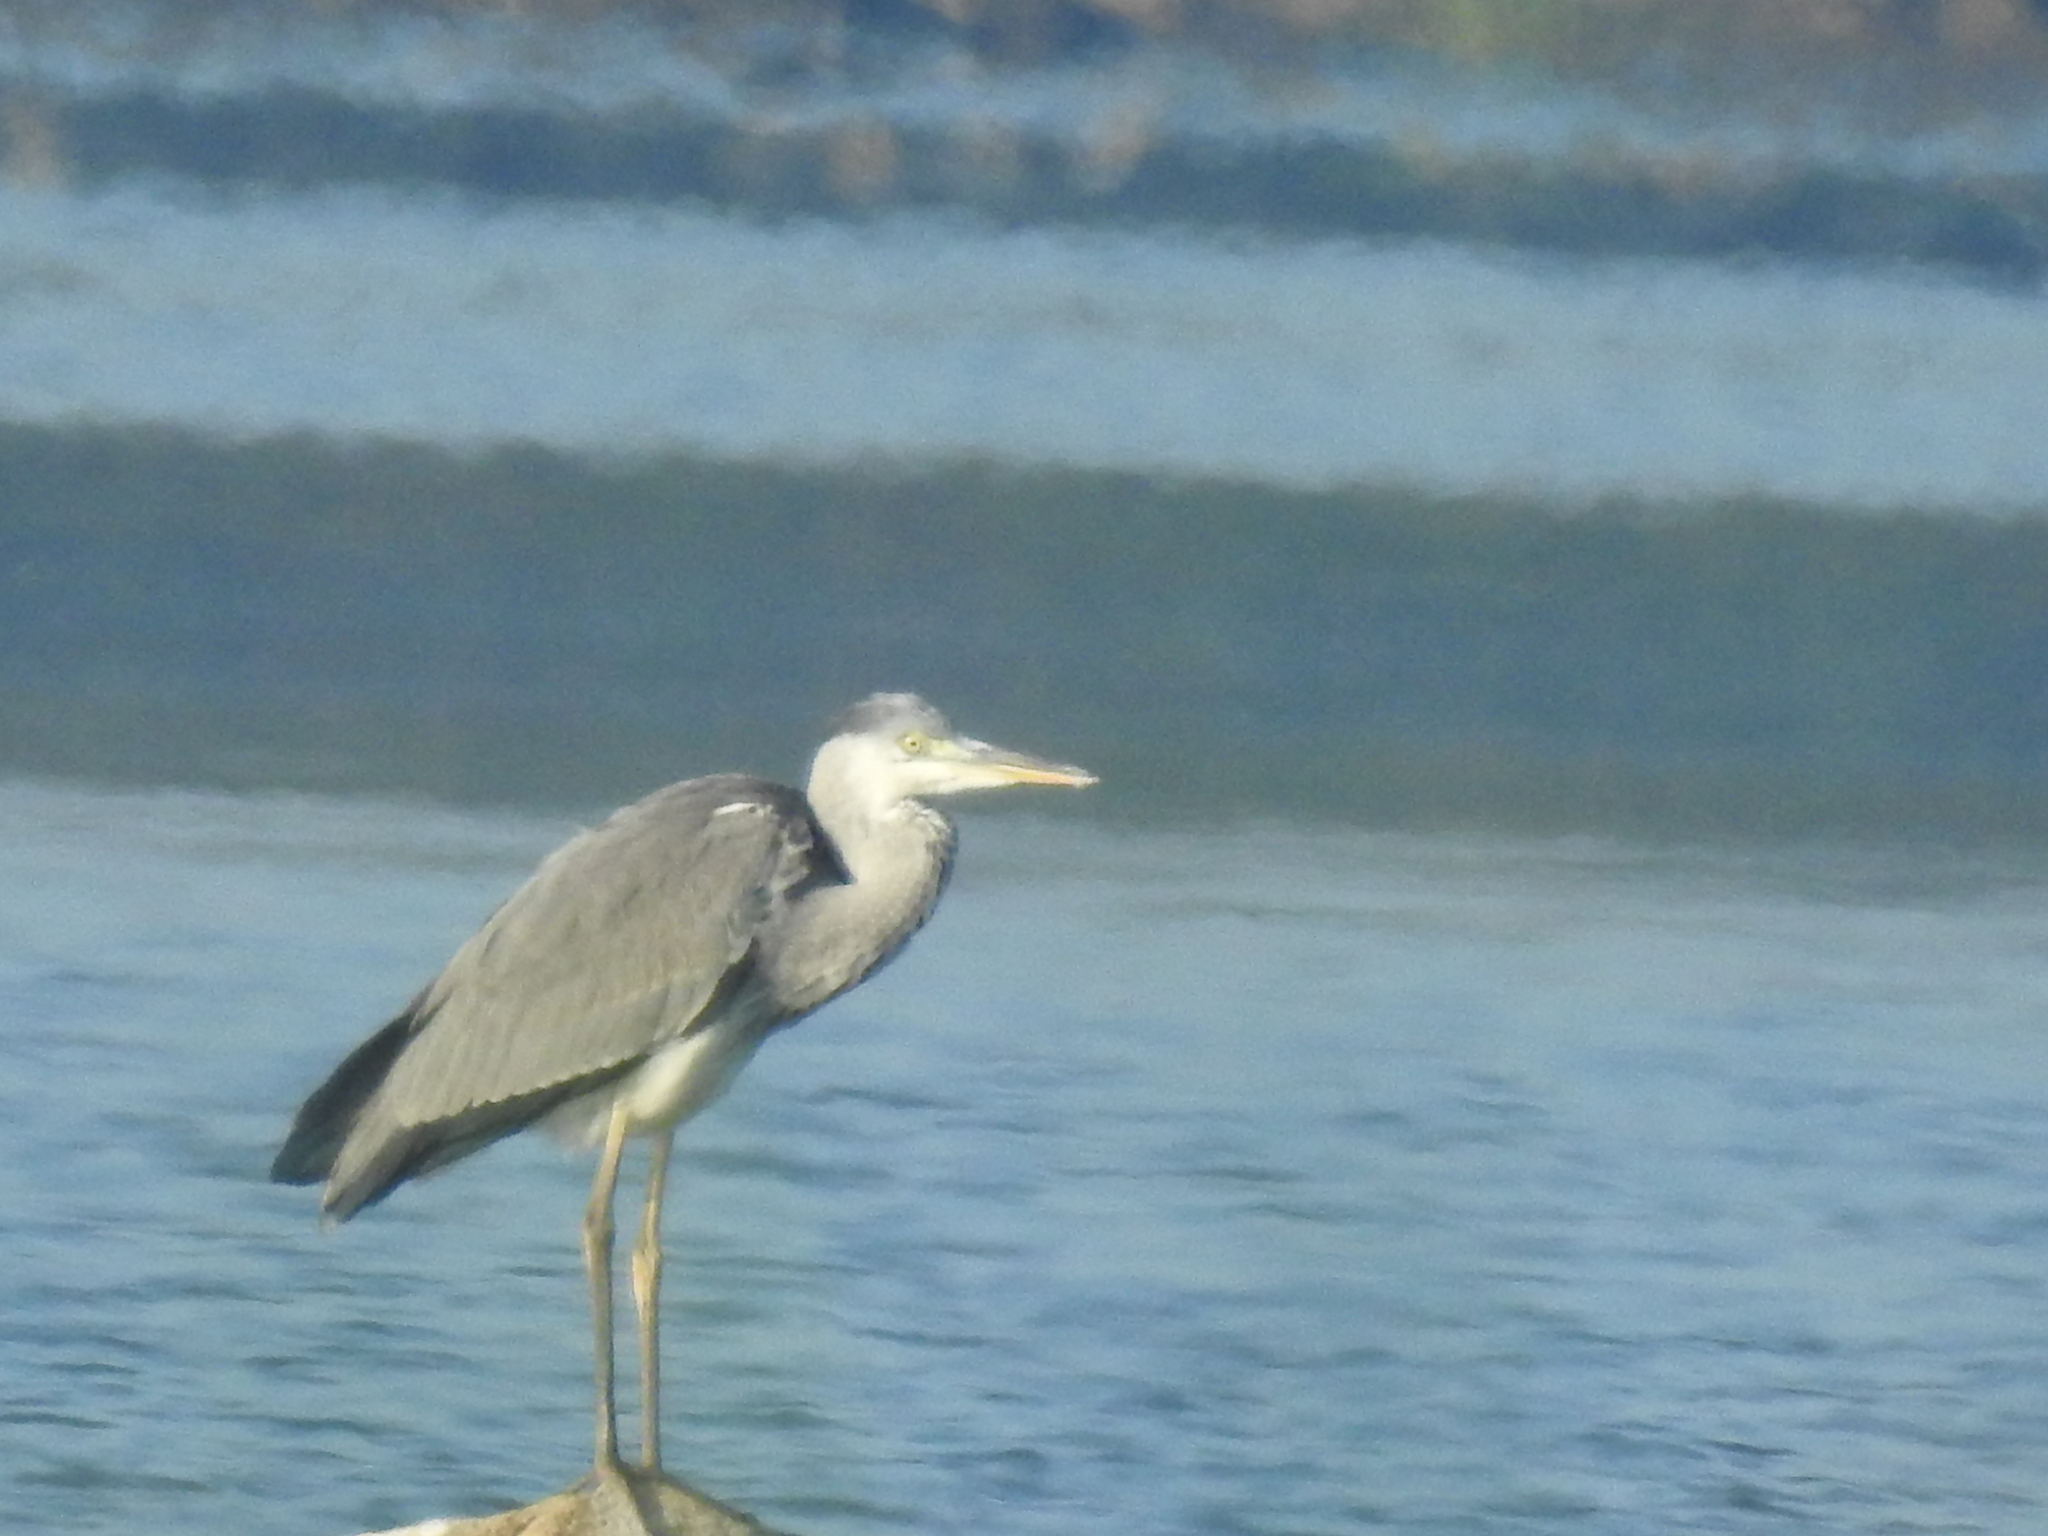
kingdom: Animalia
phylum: Chordata
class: Aves
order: Pelecaniformes
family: Ardeidae
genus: Ardea
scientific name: Ardea cinerea
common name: Grey heron
